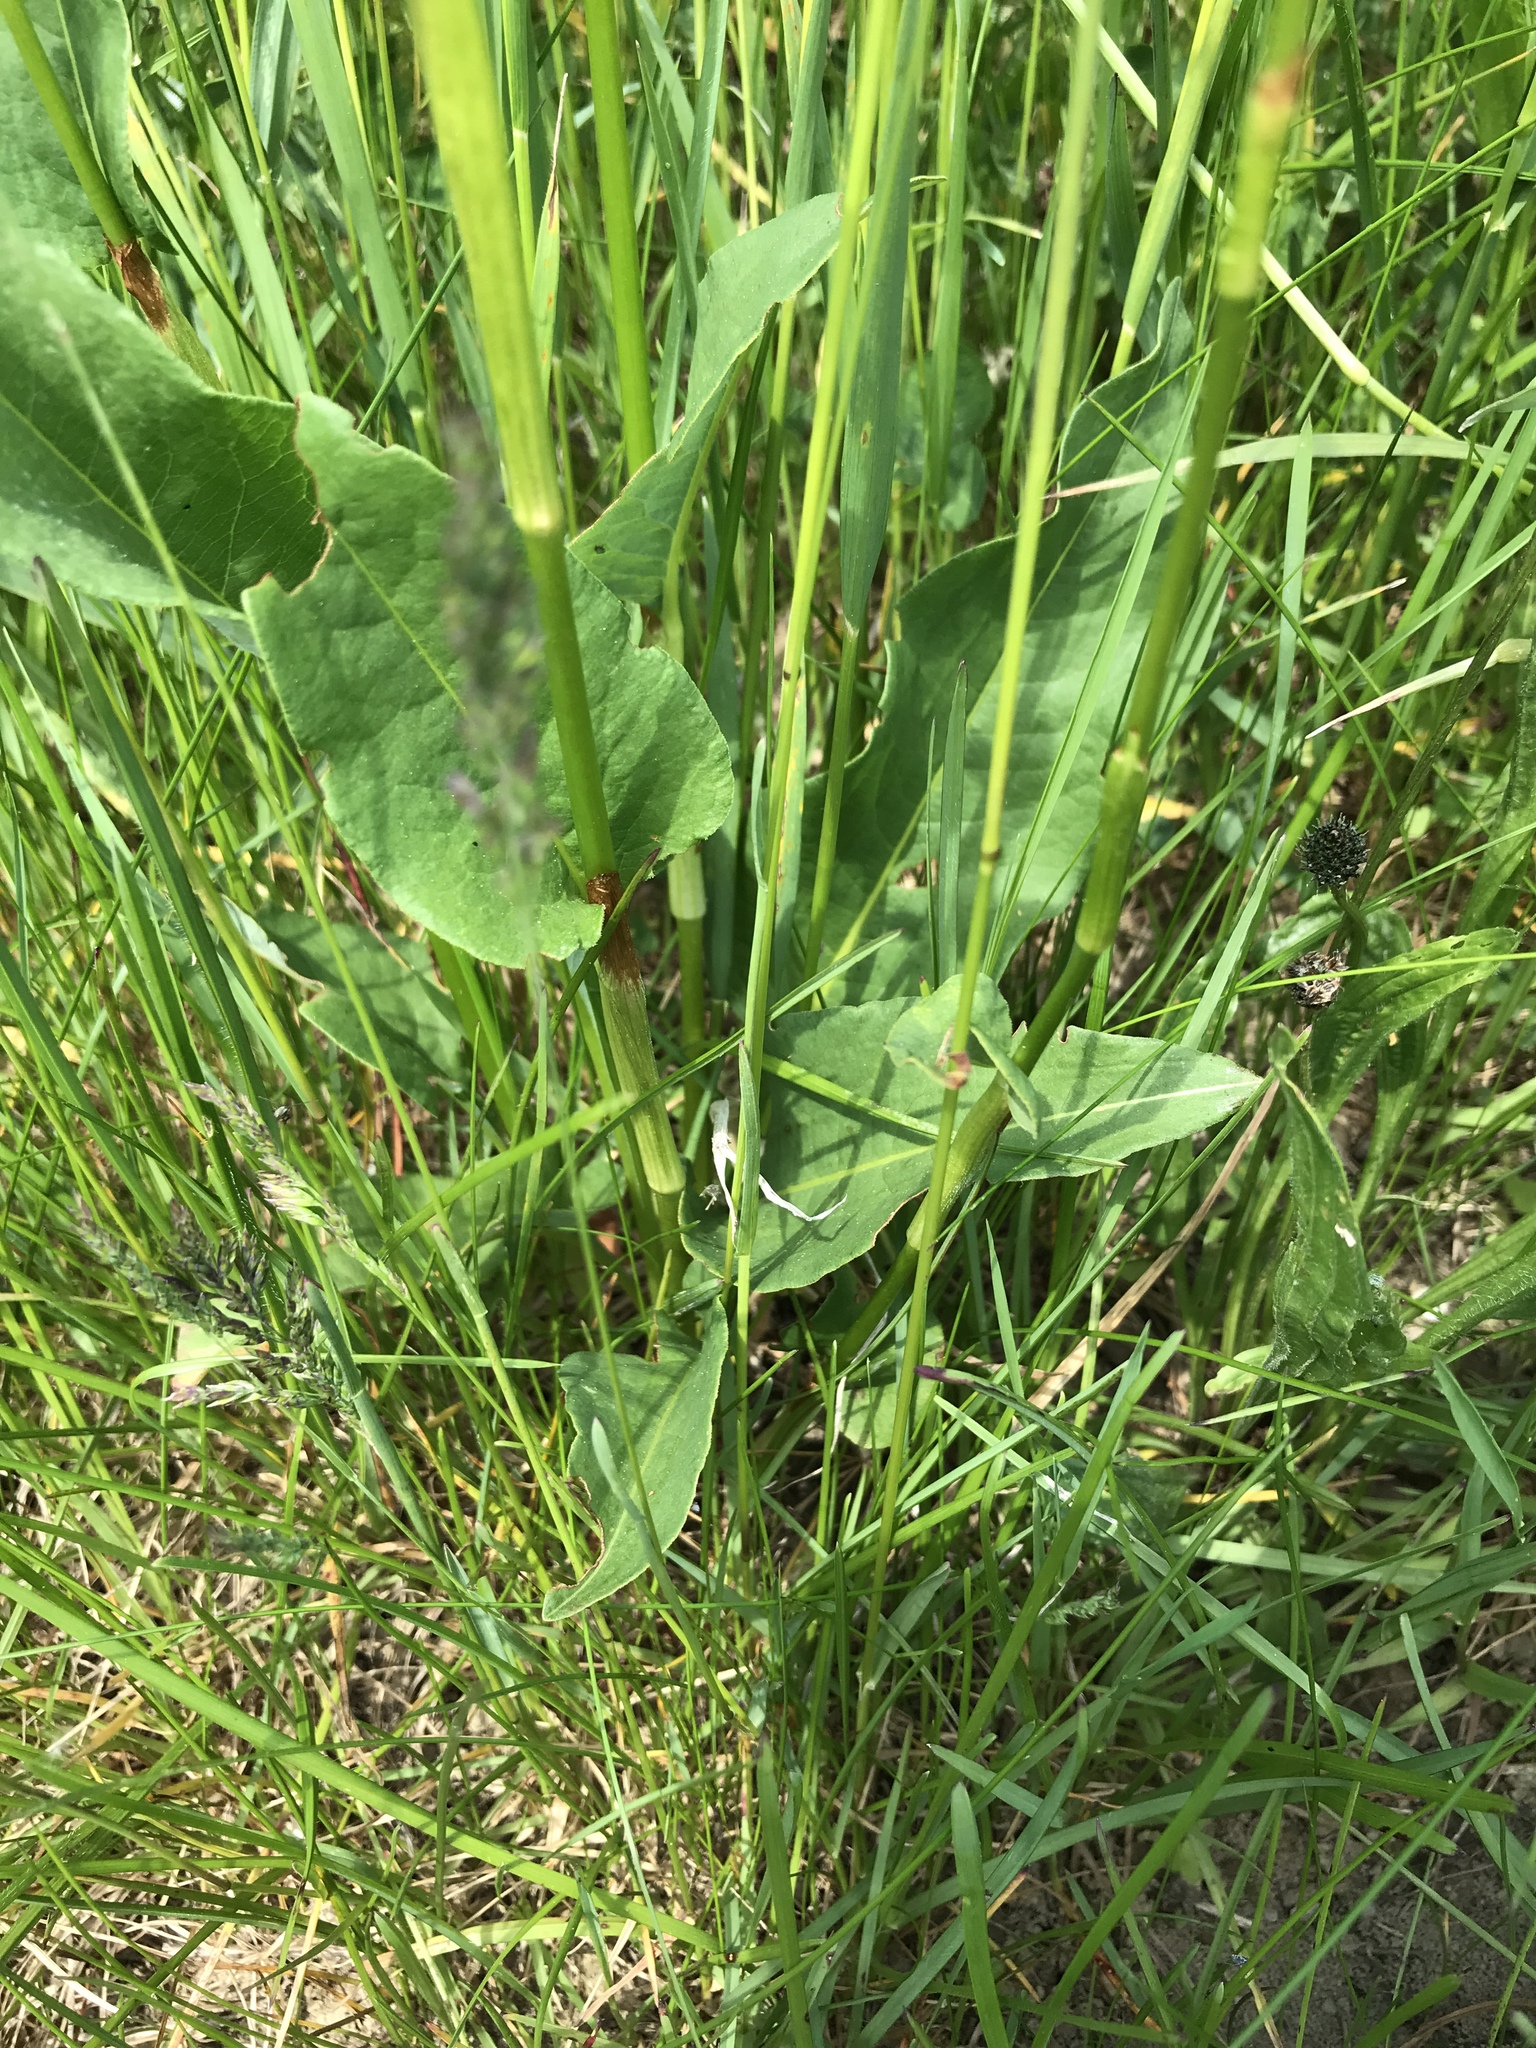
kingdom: Plantae
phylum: Tracheophyta
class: Magnoliopsida
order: Caryophyllales
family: Polygonaceae
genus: Bistorta
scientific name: Bistorta officinalis
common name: Common bistort
